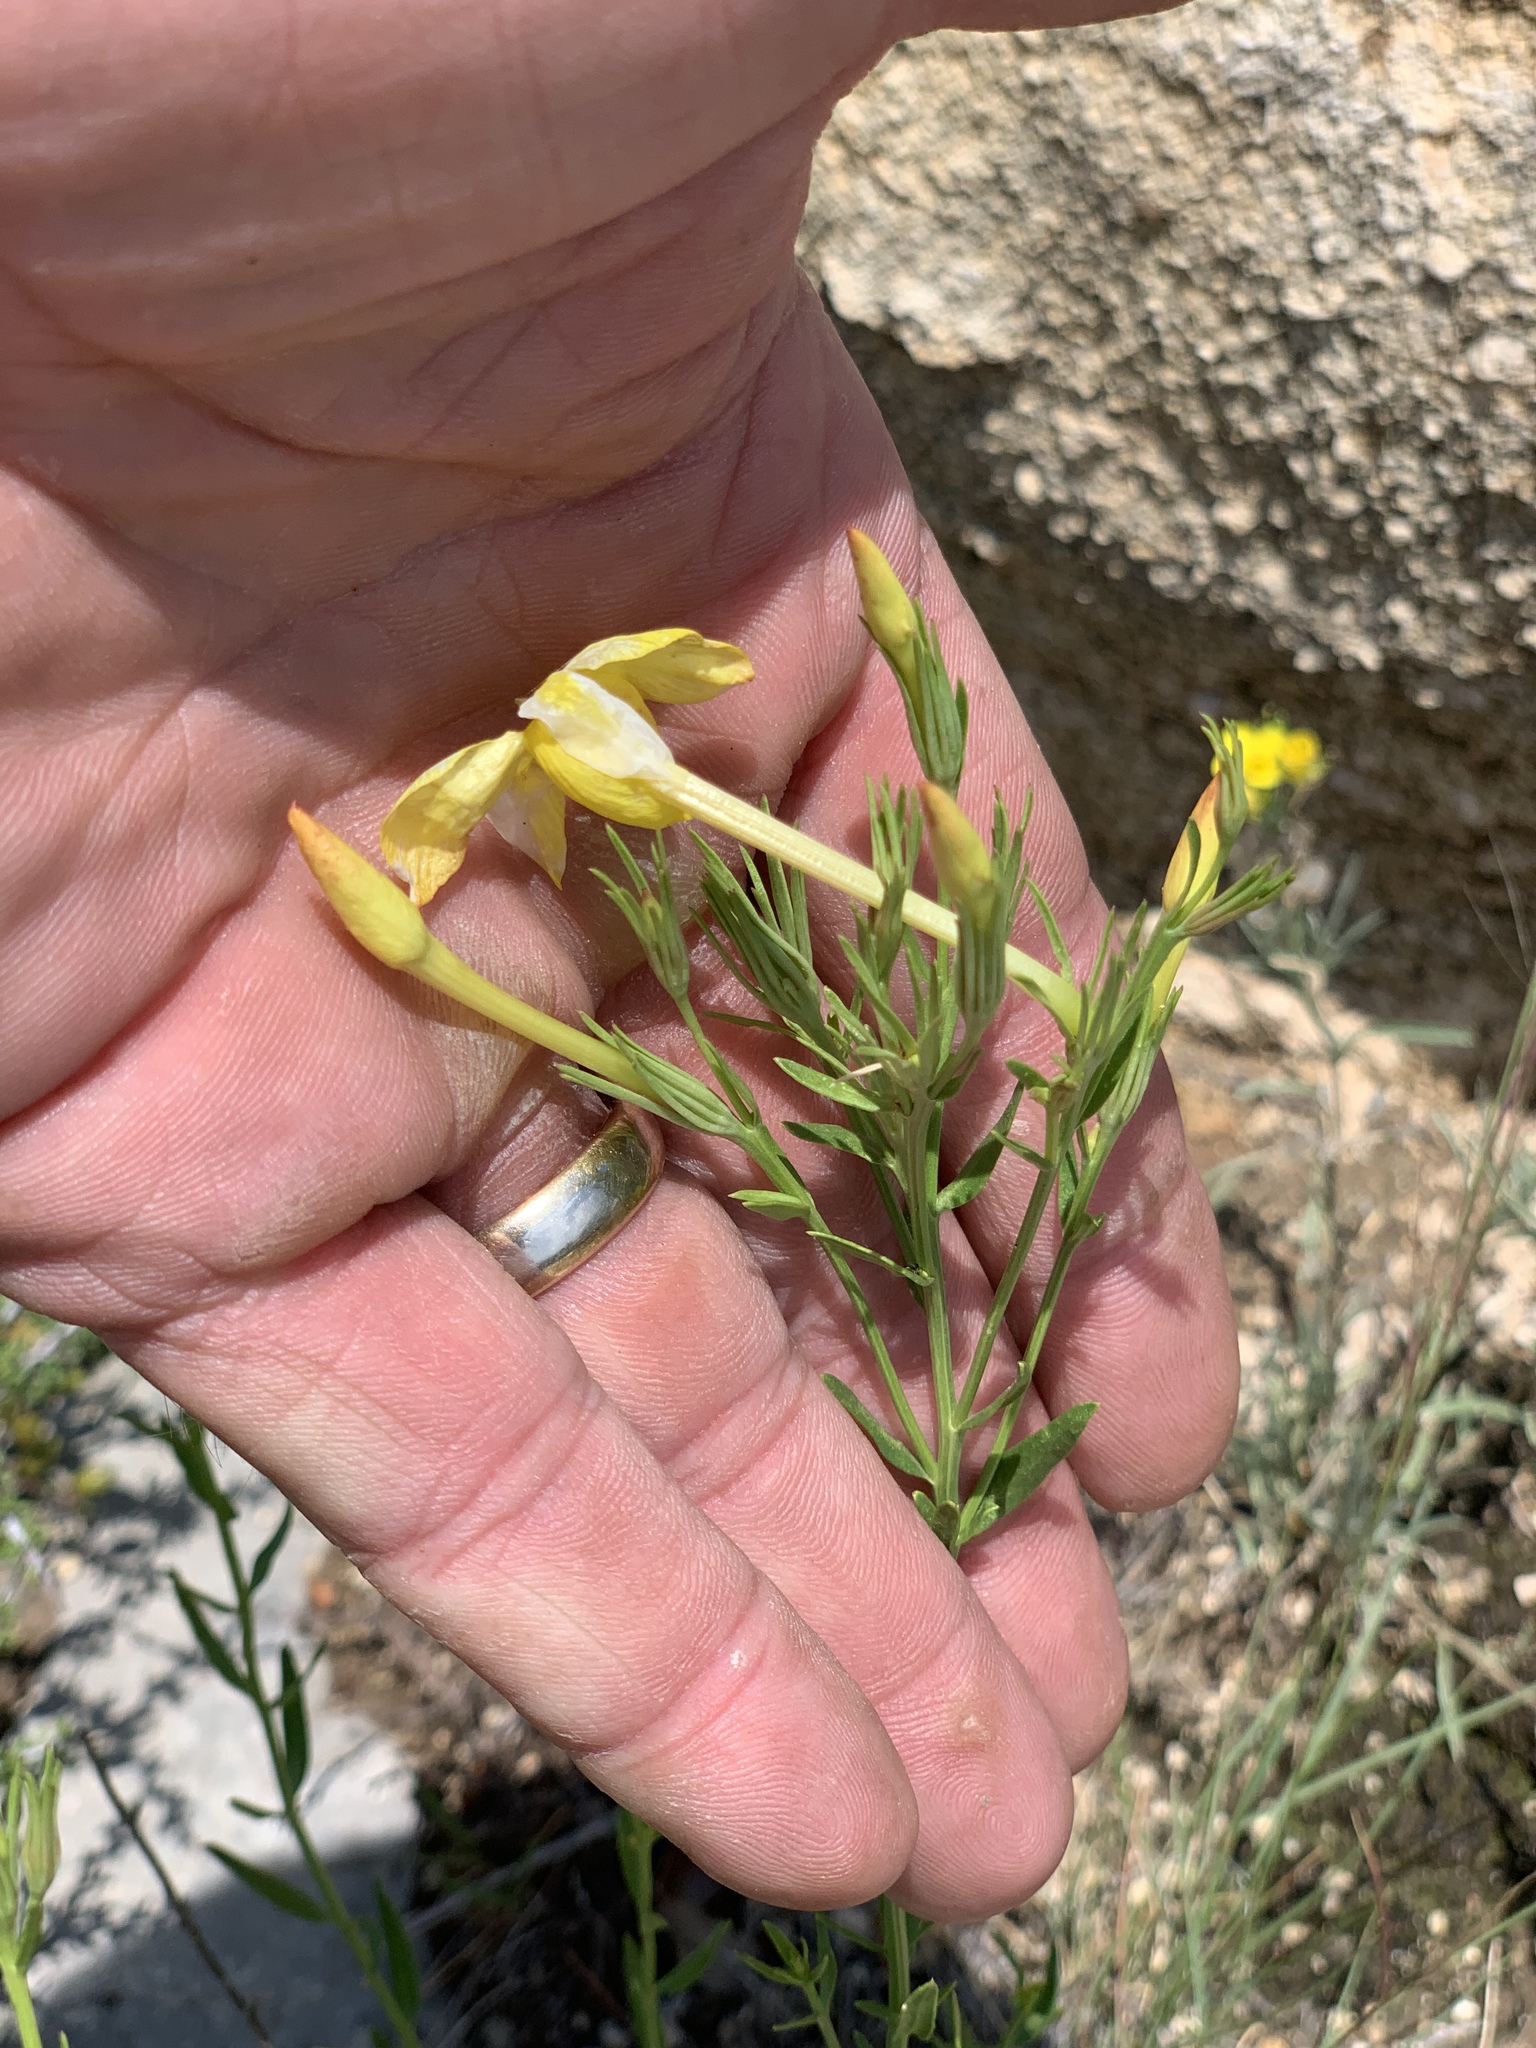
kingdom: Plantae
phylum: Tracheophyta
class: Magnoliopsida
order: Lamiales
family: Oleaceae
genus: Menodora
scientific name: Menodora longiflora
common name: Showy menodora
